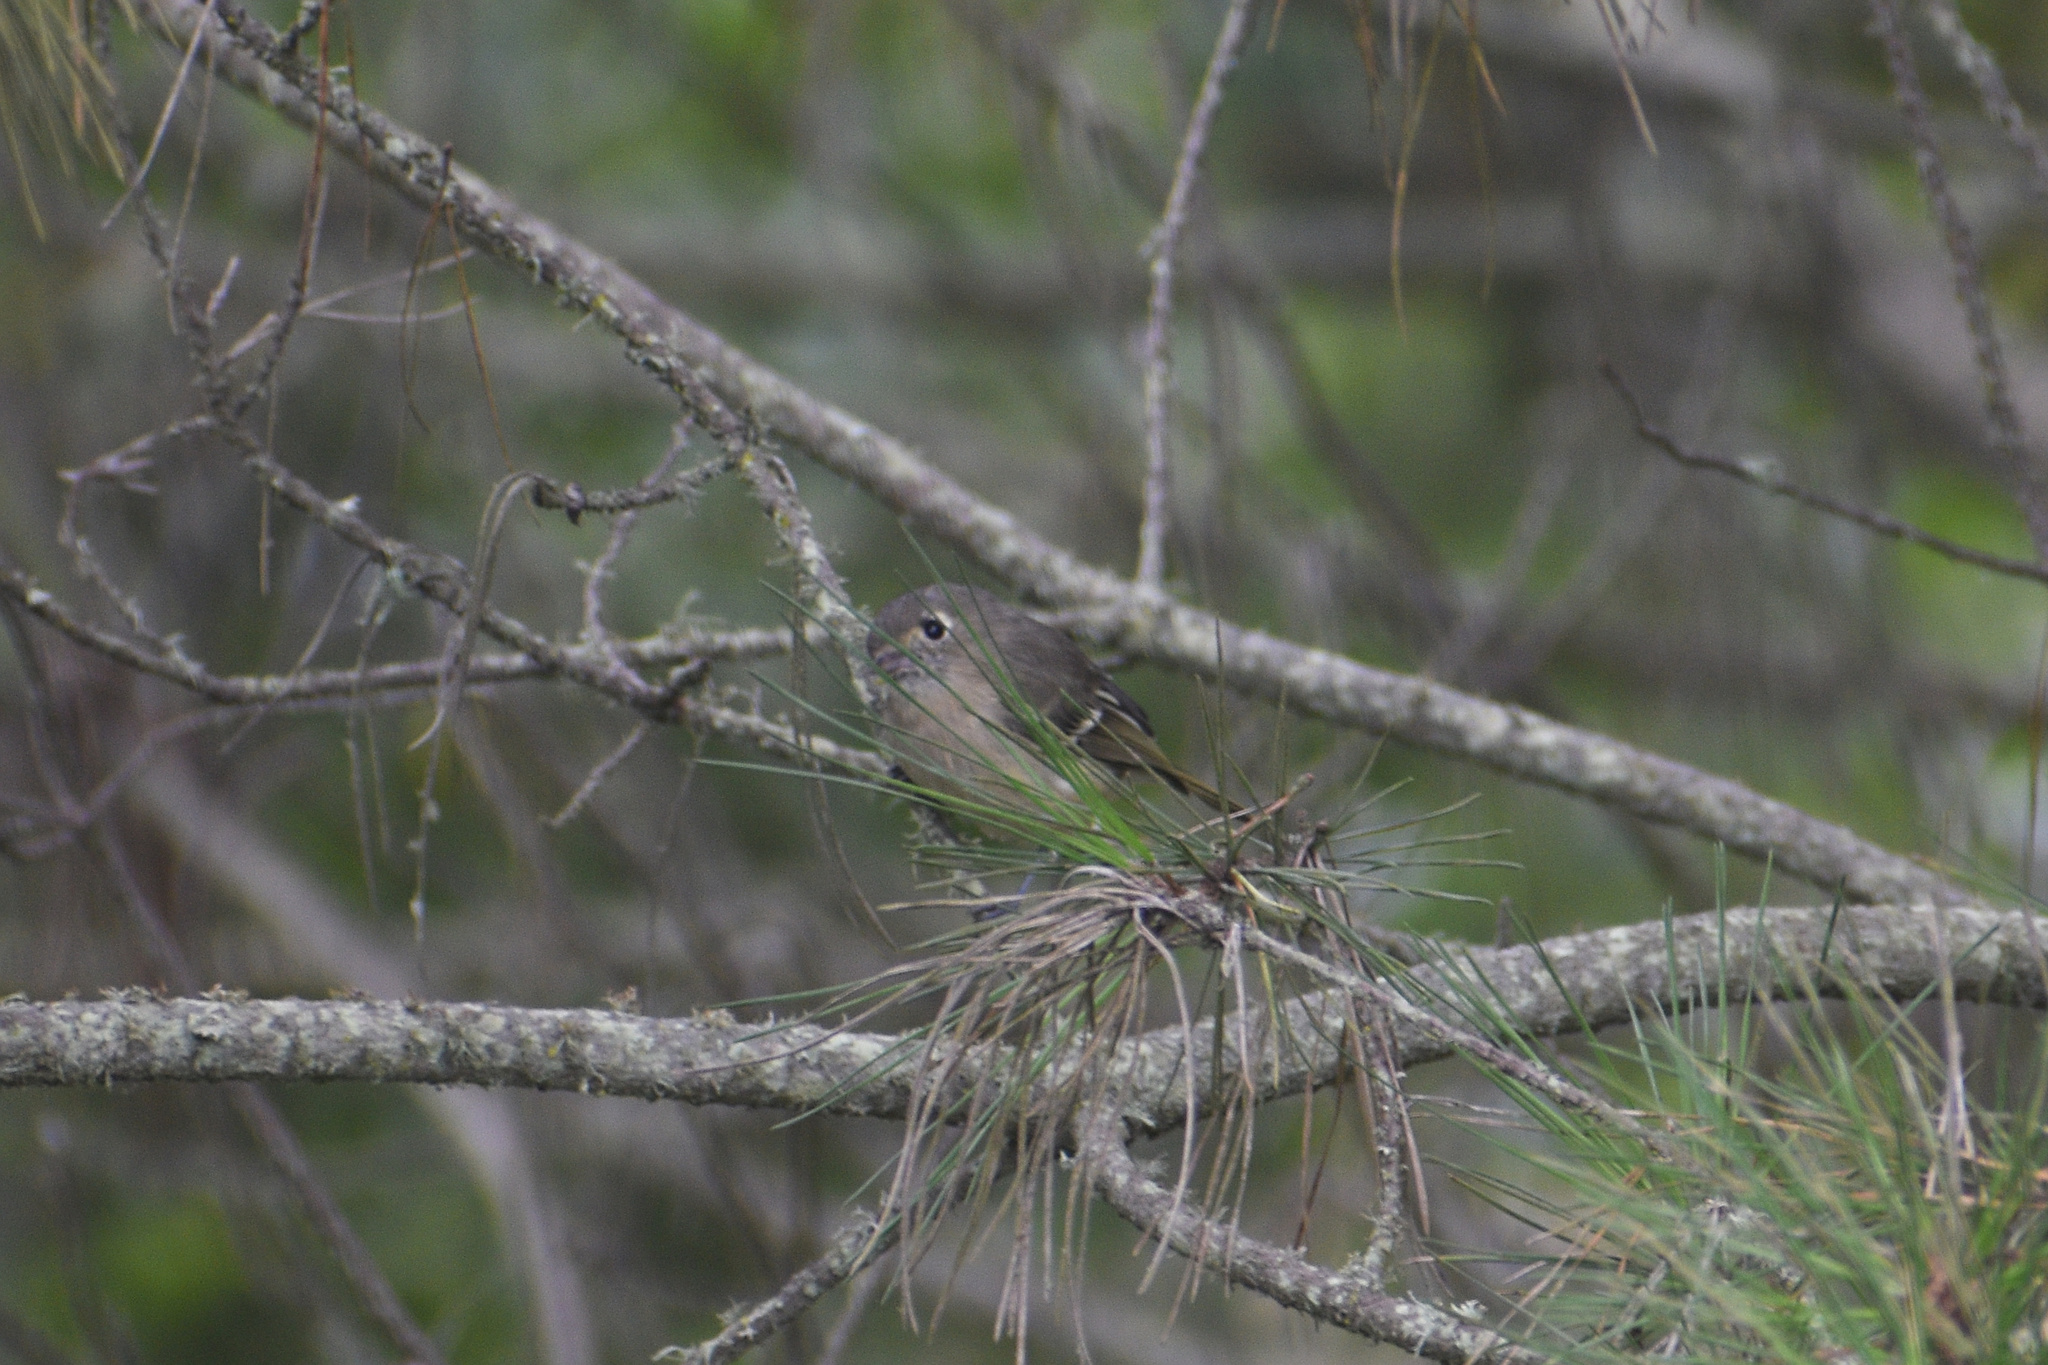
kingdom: Animalia
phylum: Chordata
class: Aves
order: Passeriformes
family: Vireonidae
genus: Vireo
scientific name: Vireo huttoni
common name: Hutton's vireo
